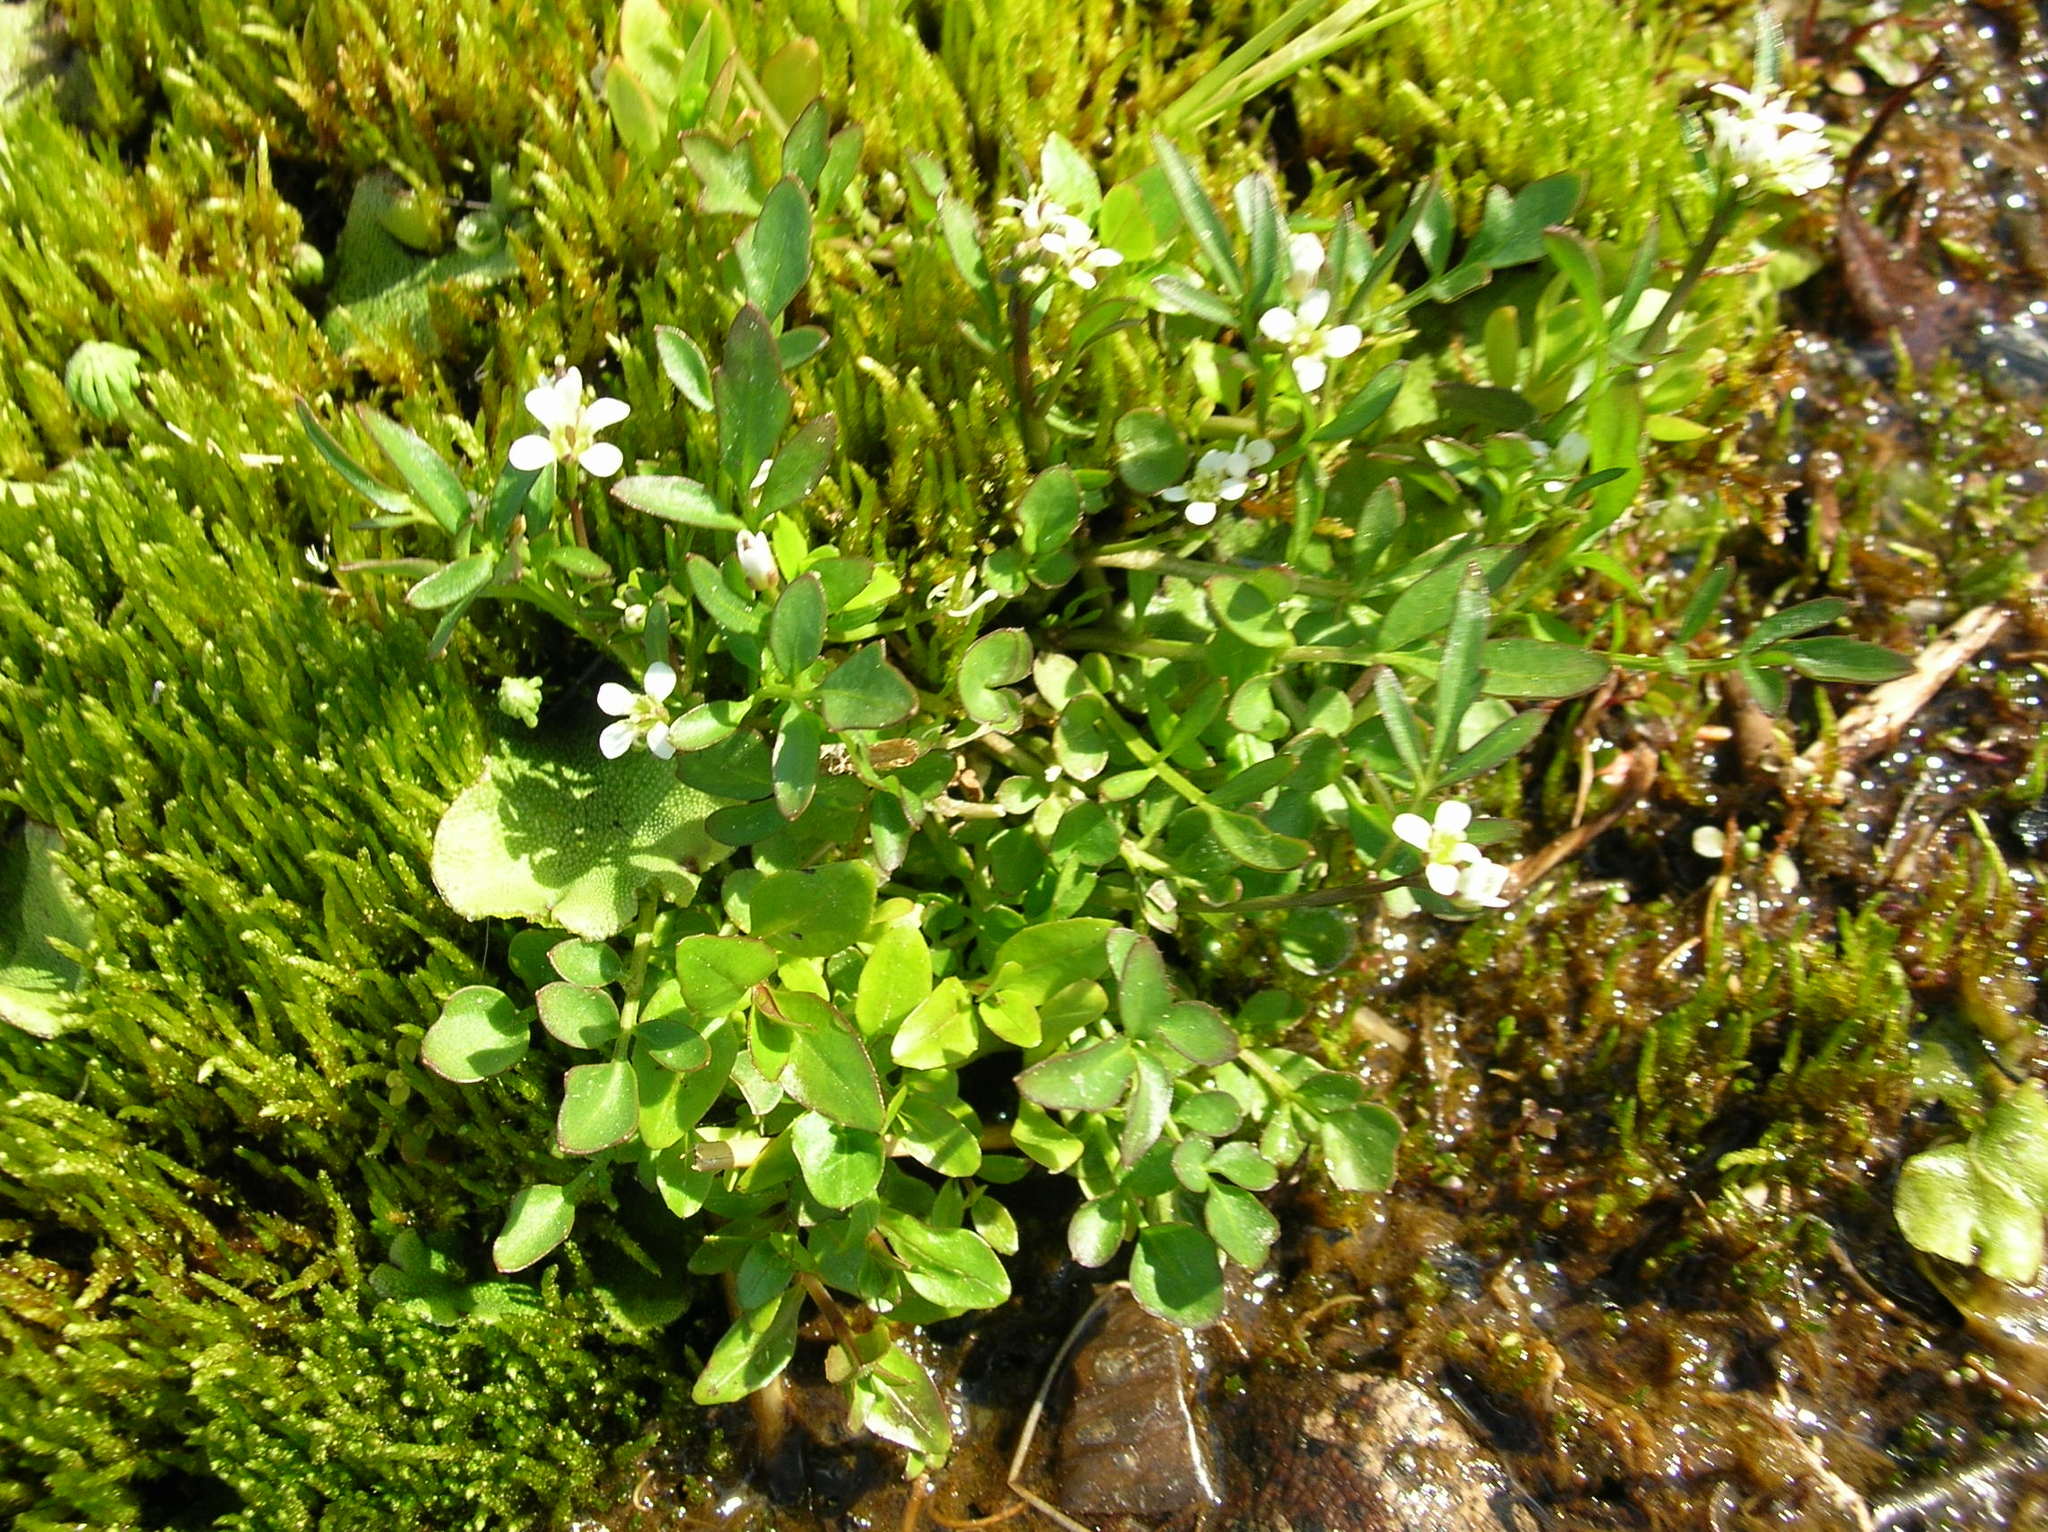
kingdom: Plantae
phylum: Tracheophyta
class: Magnoliopsida
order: Brassicales
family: Brassicaceae
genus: Cardamine
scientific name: Cardamine umbellata
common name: Siberian bittercress
